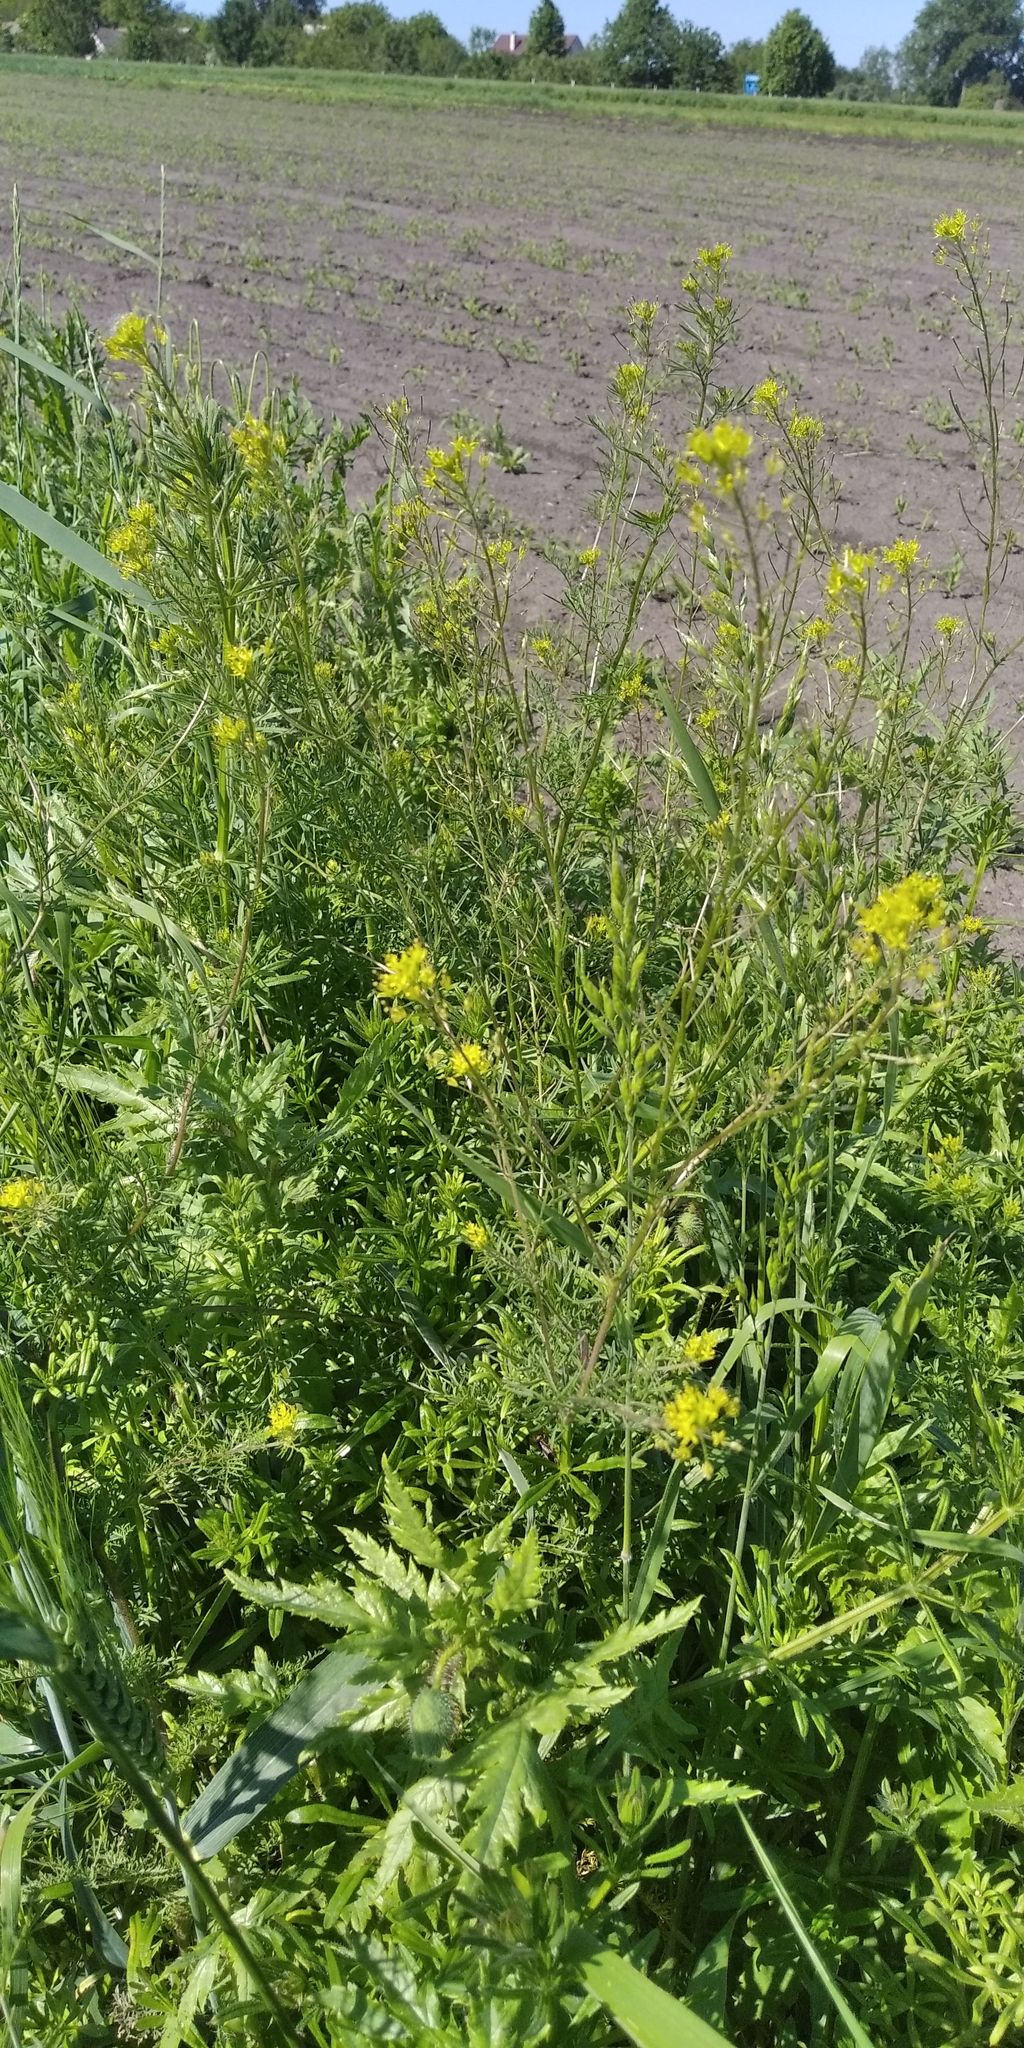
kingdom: Plantae
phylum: Tracheophyta
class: Magnoliopsida
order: Brassicales
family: Brassicaceae
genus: Descurainia
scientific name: Descurainia sophia
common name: Flixweed
